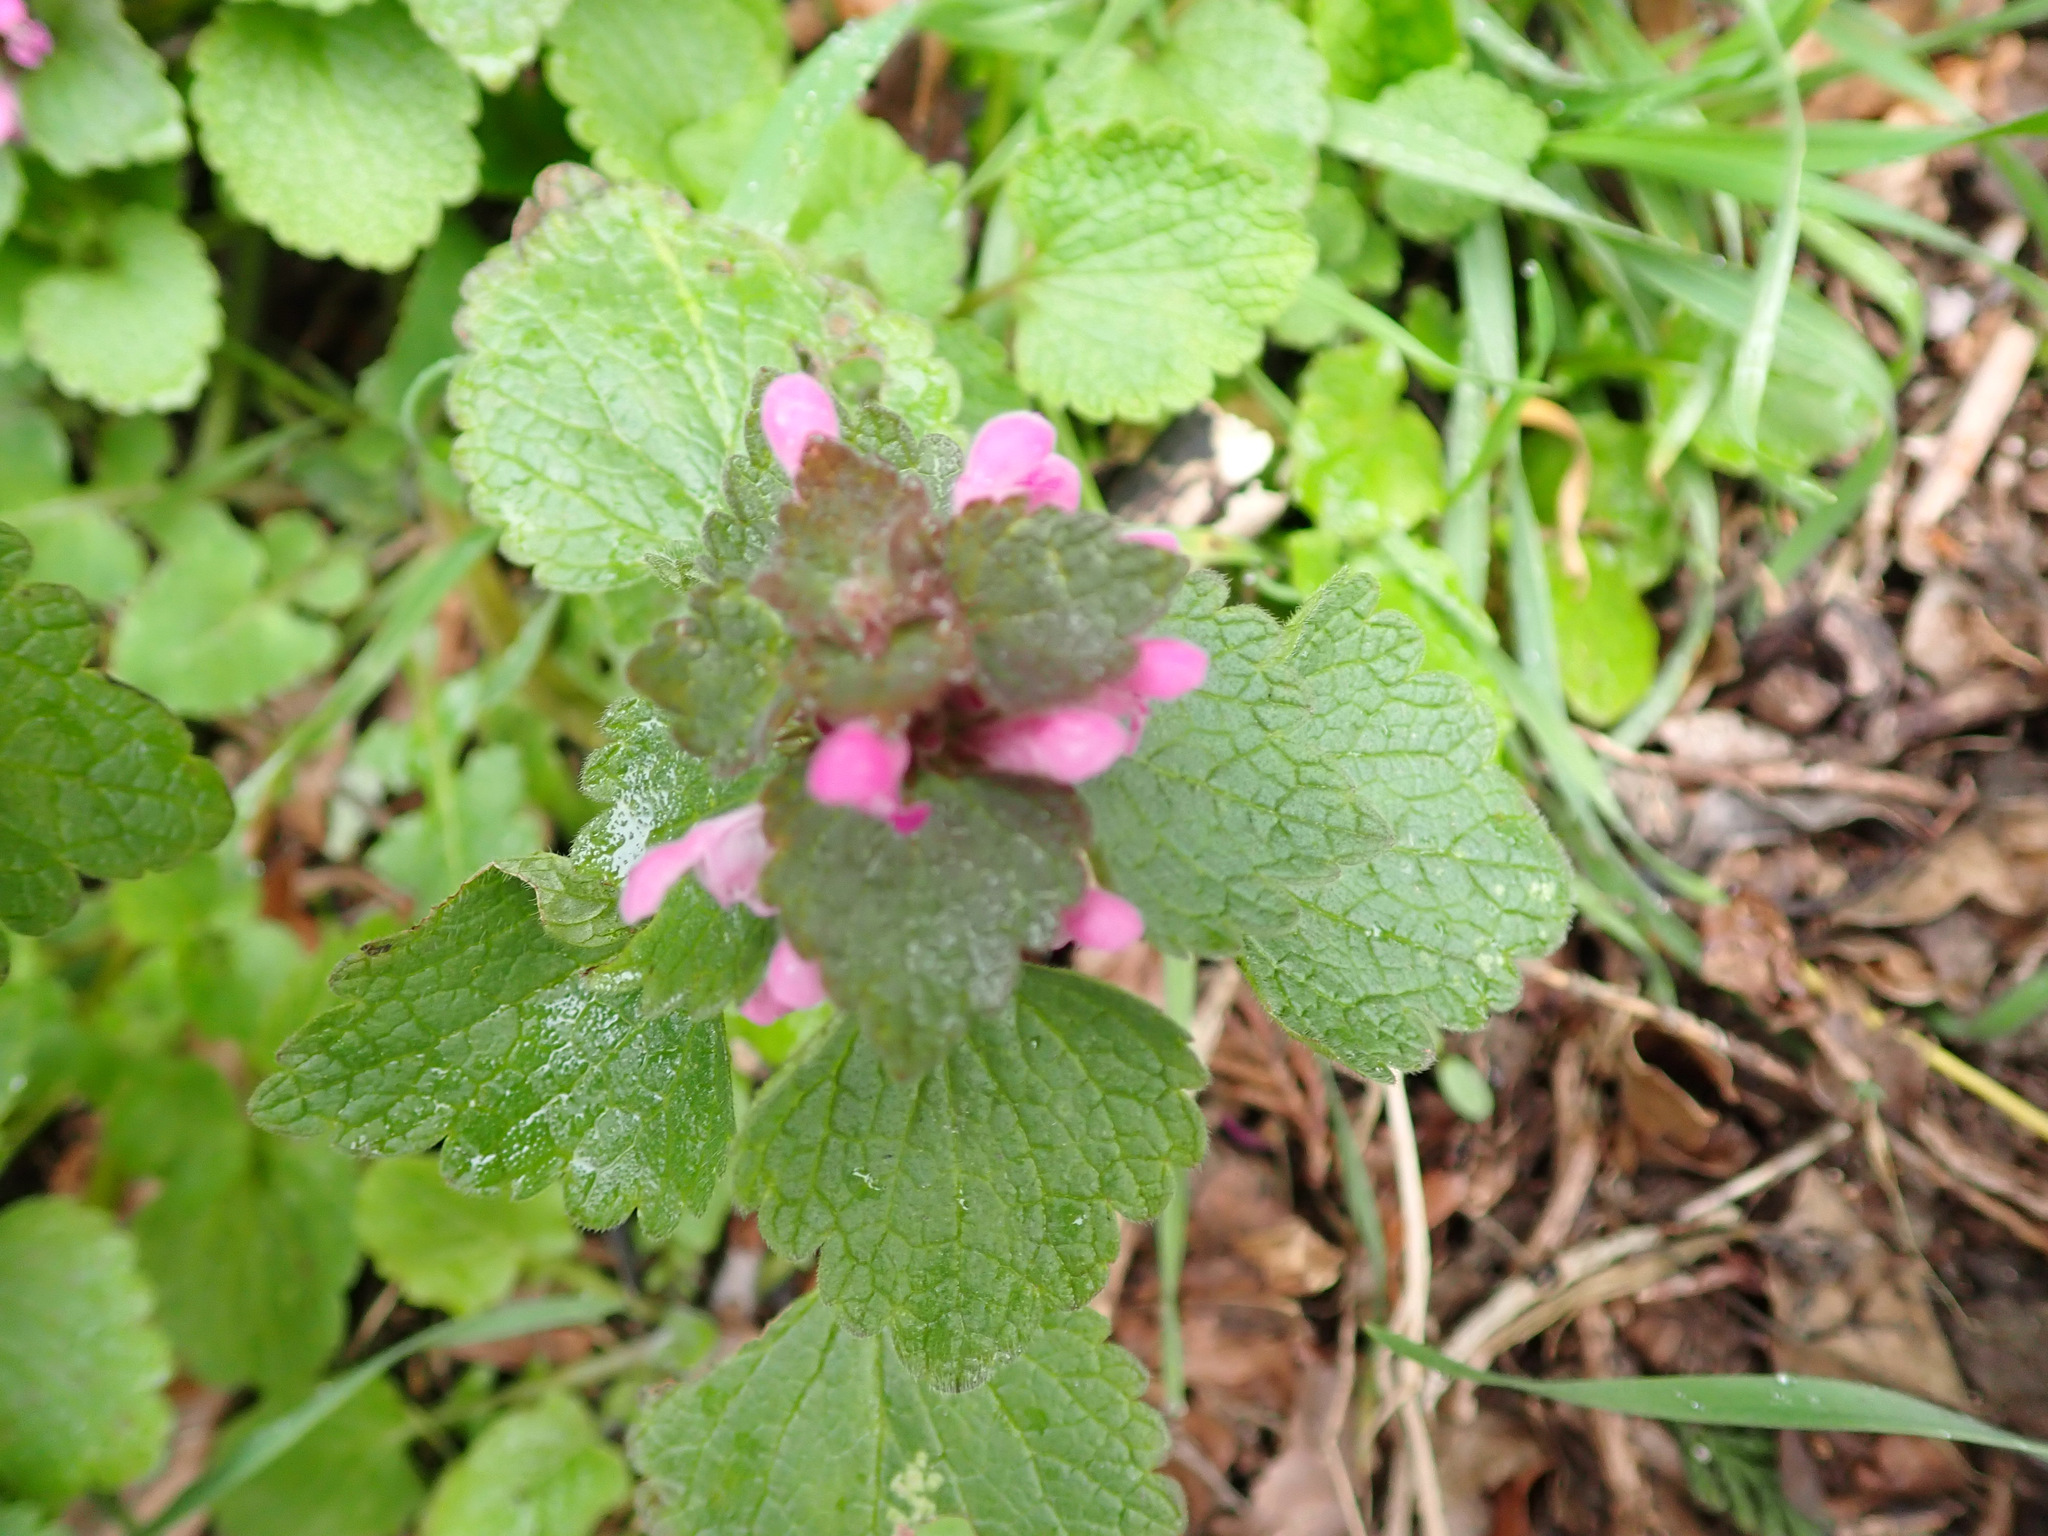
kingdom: Plantae
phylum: Tracheophyta
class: Magnoliopsida
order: Lamiales
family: Lamiaceae
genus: Lamium
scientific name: Lamium purpureum
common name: Red dead-nettle
